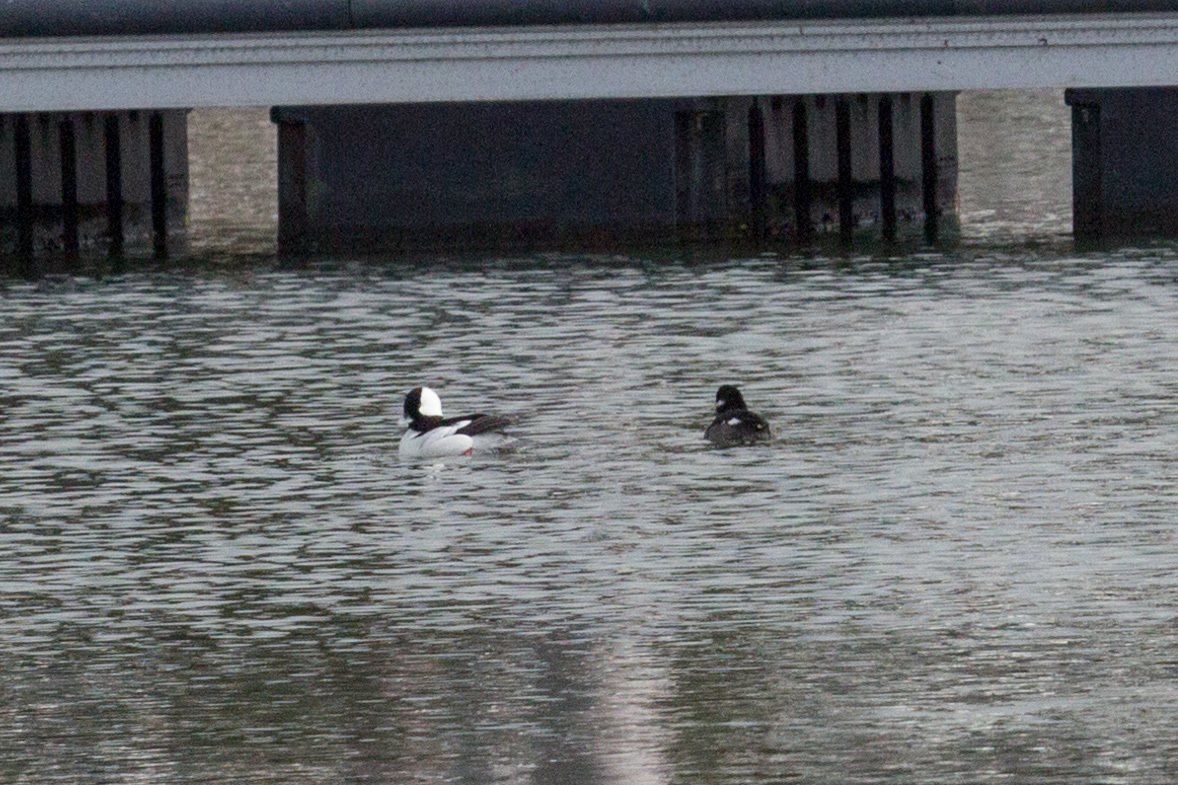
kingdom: Animalia
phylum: Chordata
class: Aves
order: Anseriformes
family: Anatidae
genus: Bucephala
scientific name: Bucephala albeola
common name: Bufflehead
